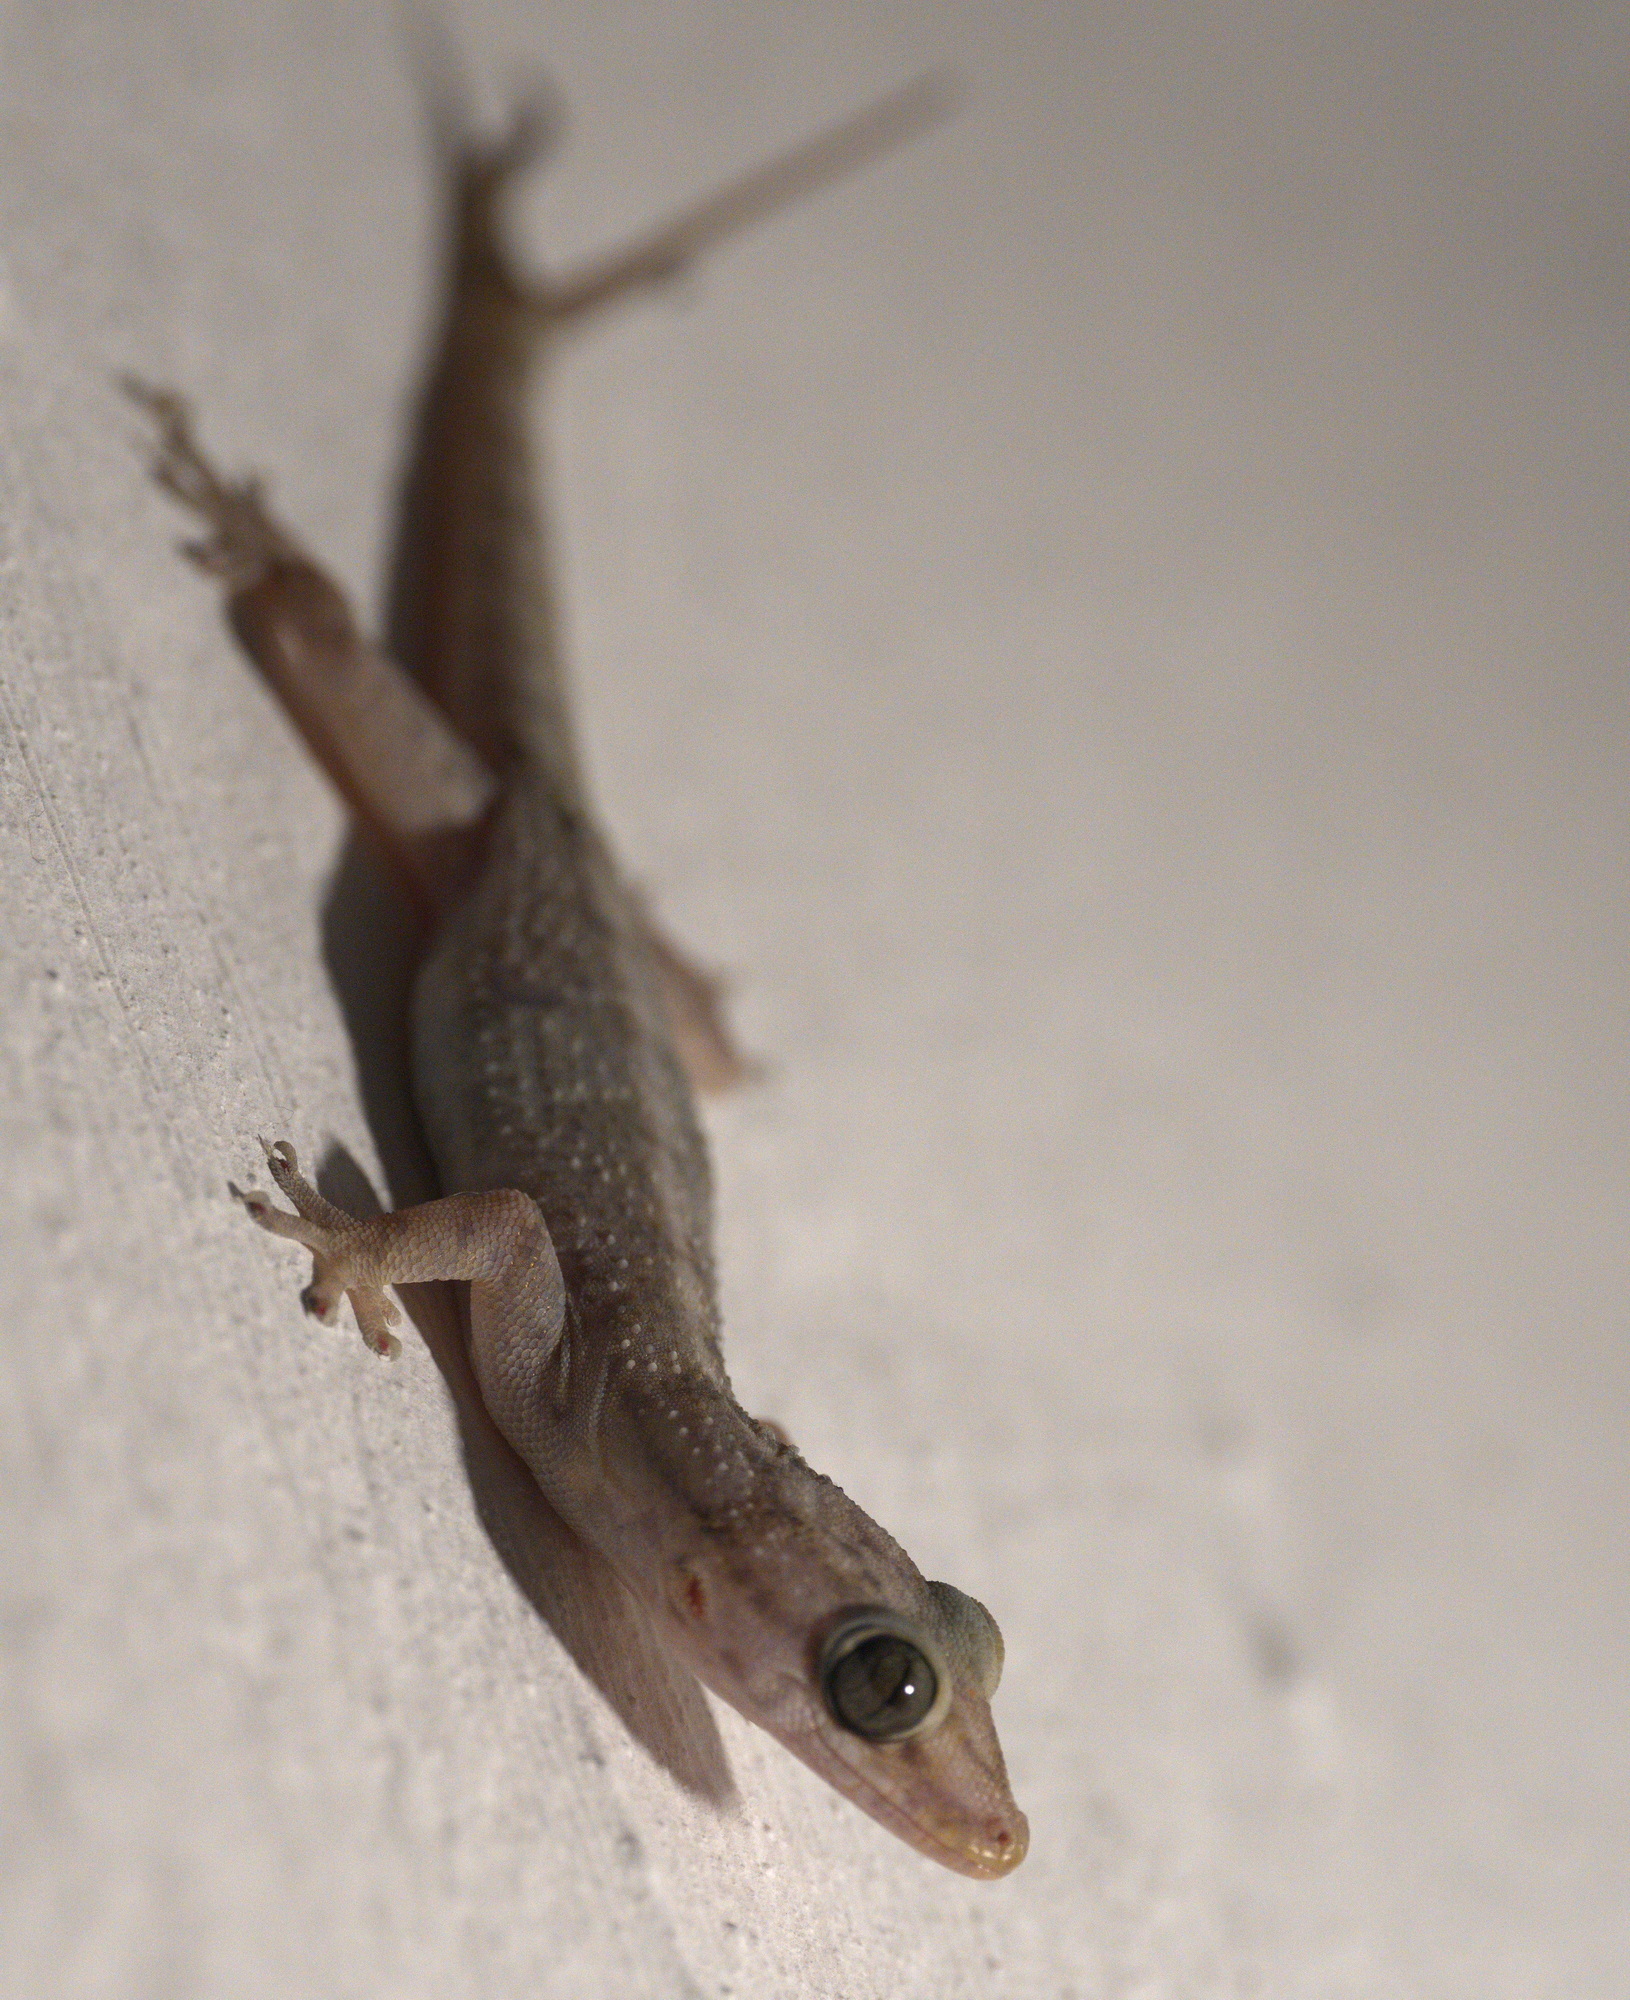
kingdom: Animalia
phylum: Chordata
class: Squamata
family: Phyllodactylidae
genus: Phyllopezus
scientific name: Phyllopezus pollicaris
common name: Brazilian gecko
